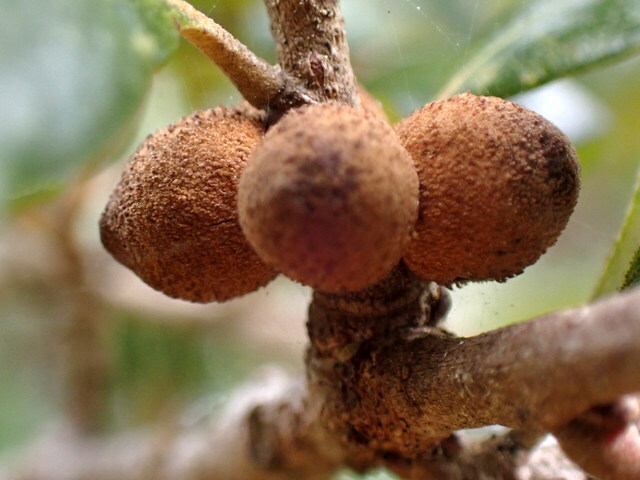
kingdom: Animalia
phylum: Arthropoda
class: Insecta
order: Hymenoptera
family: Cynipidae
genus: Disholcaspis
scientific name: Disholcaspis
